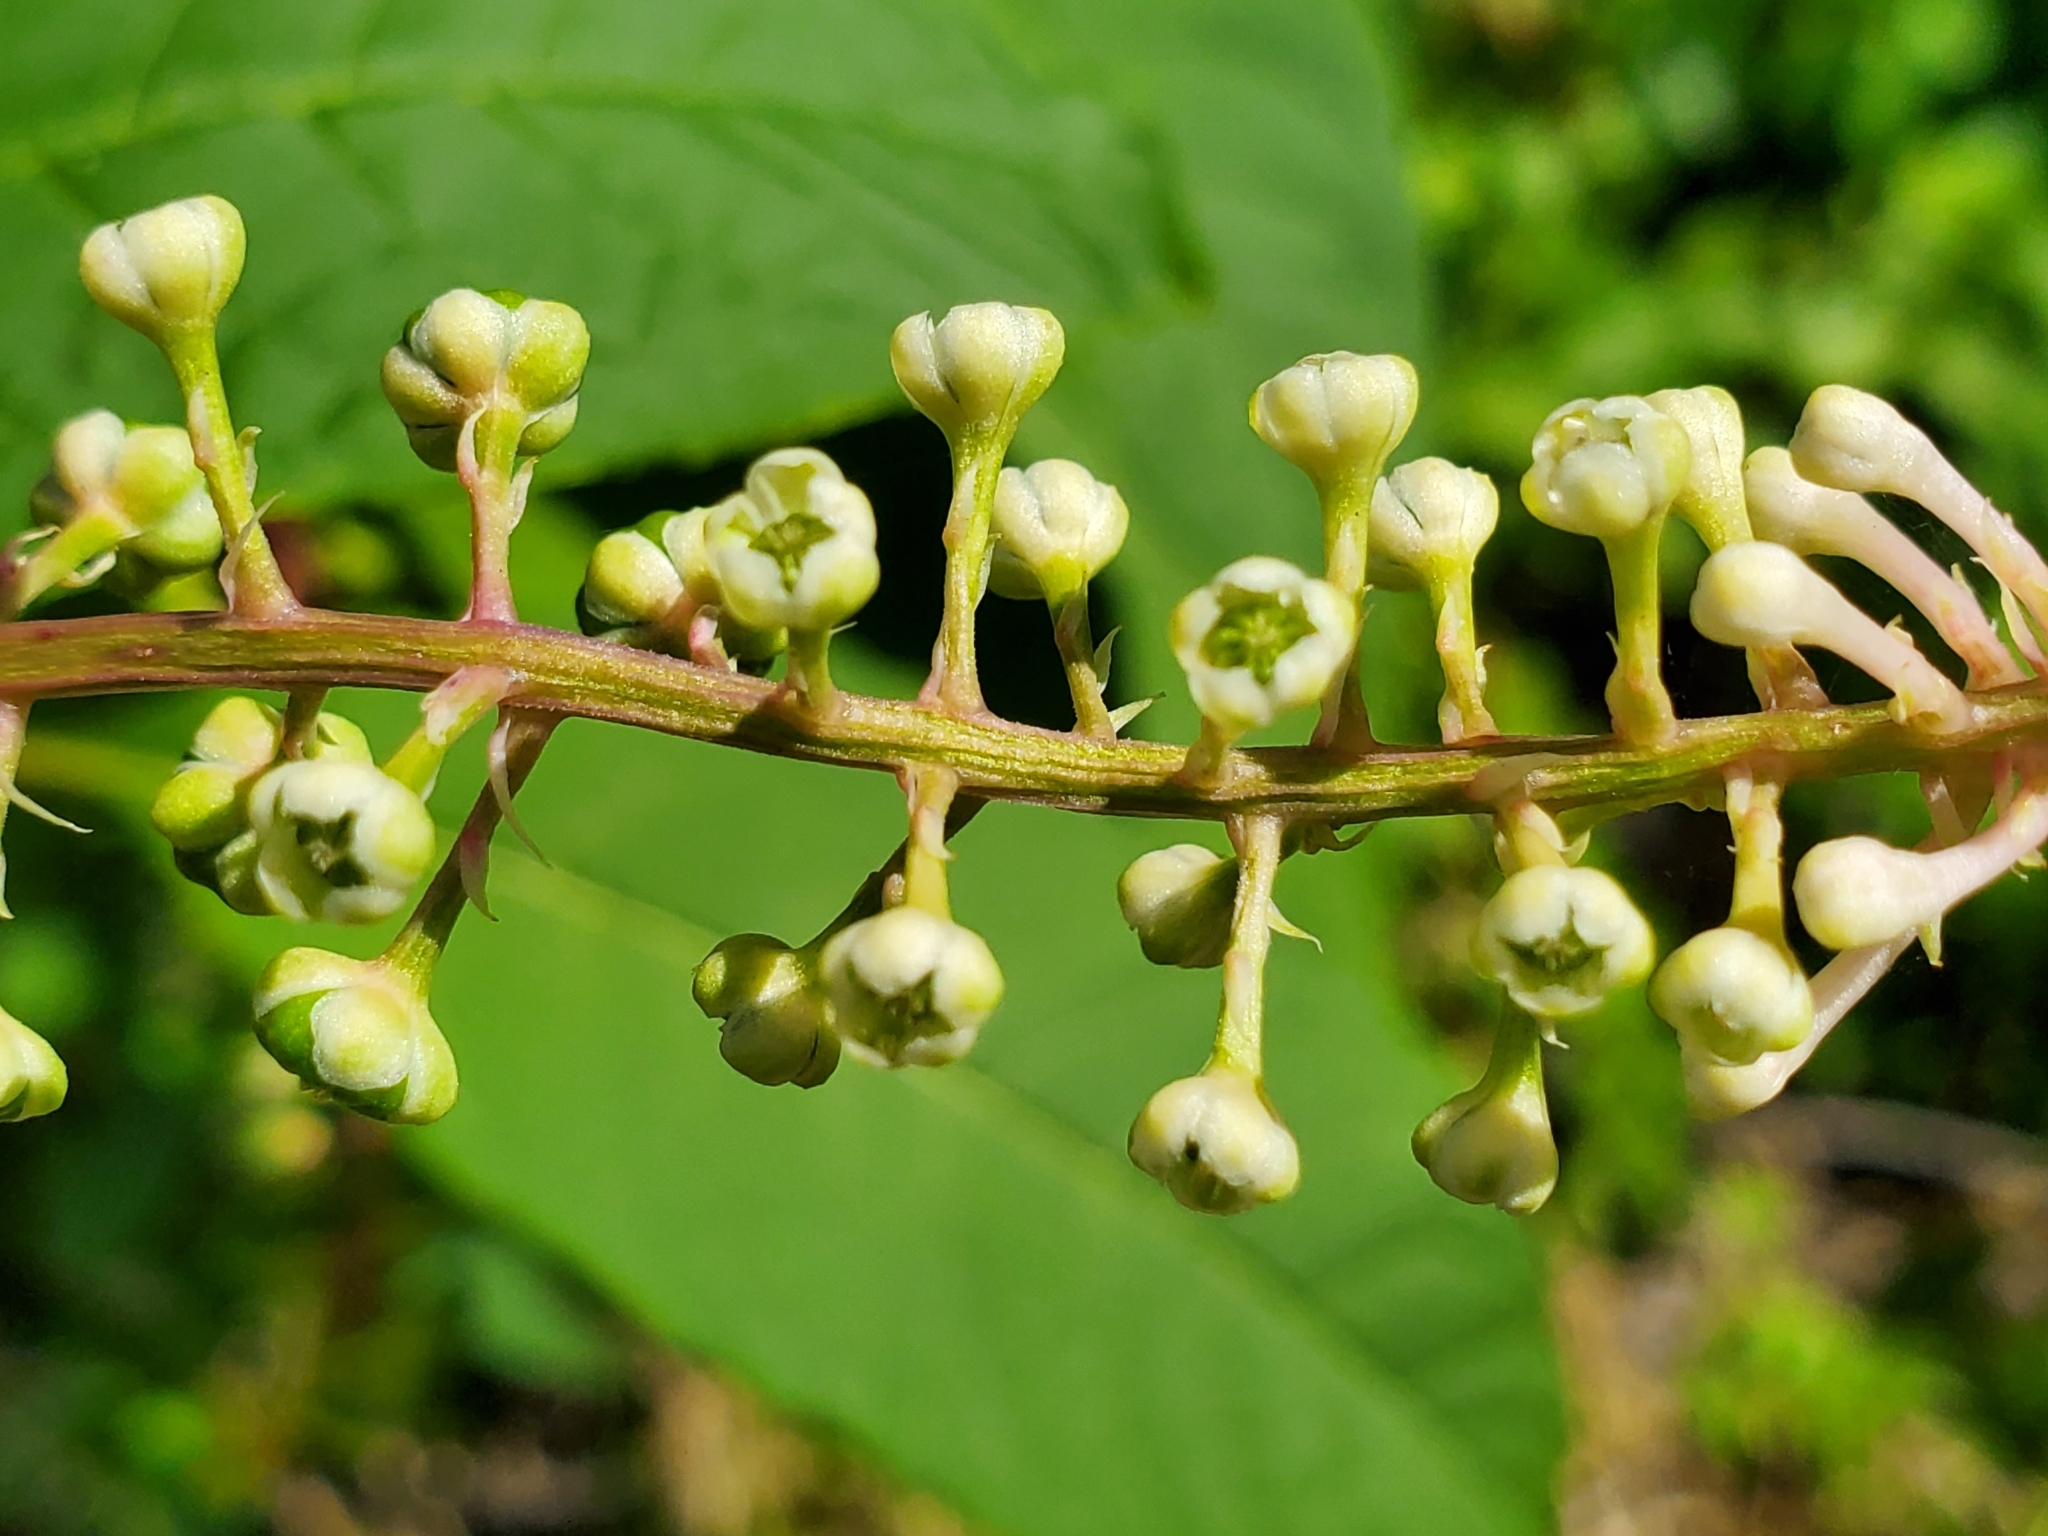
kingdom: Plantae
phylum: Tracheophyta
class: Magnoliopsida
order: Caryophyllales
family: Phytolaccaceae
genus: Phytolacca
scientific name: Phytolacca americana
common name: American pokeweed
